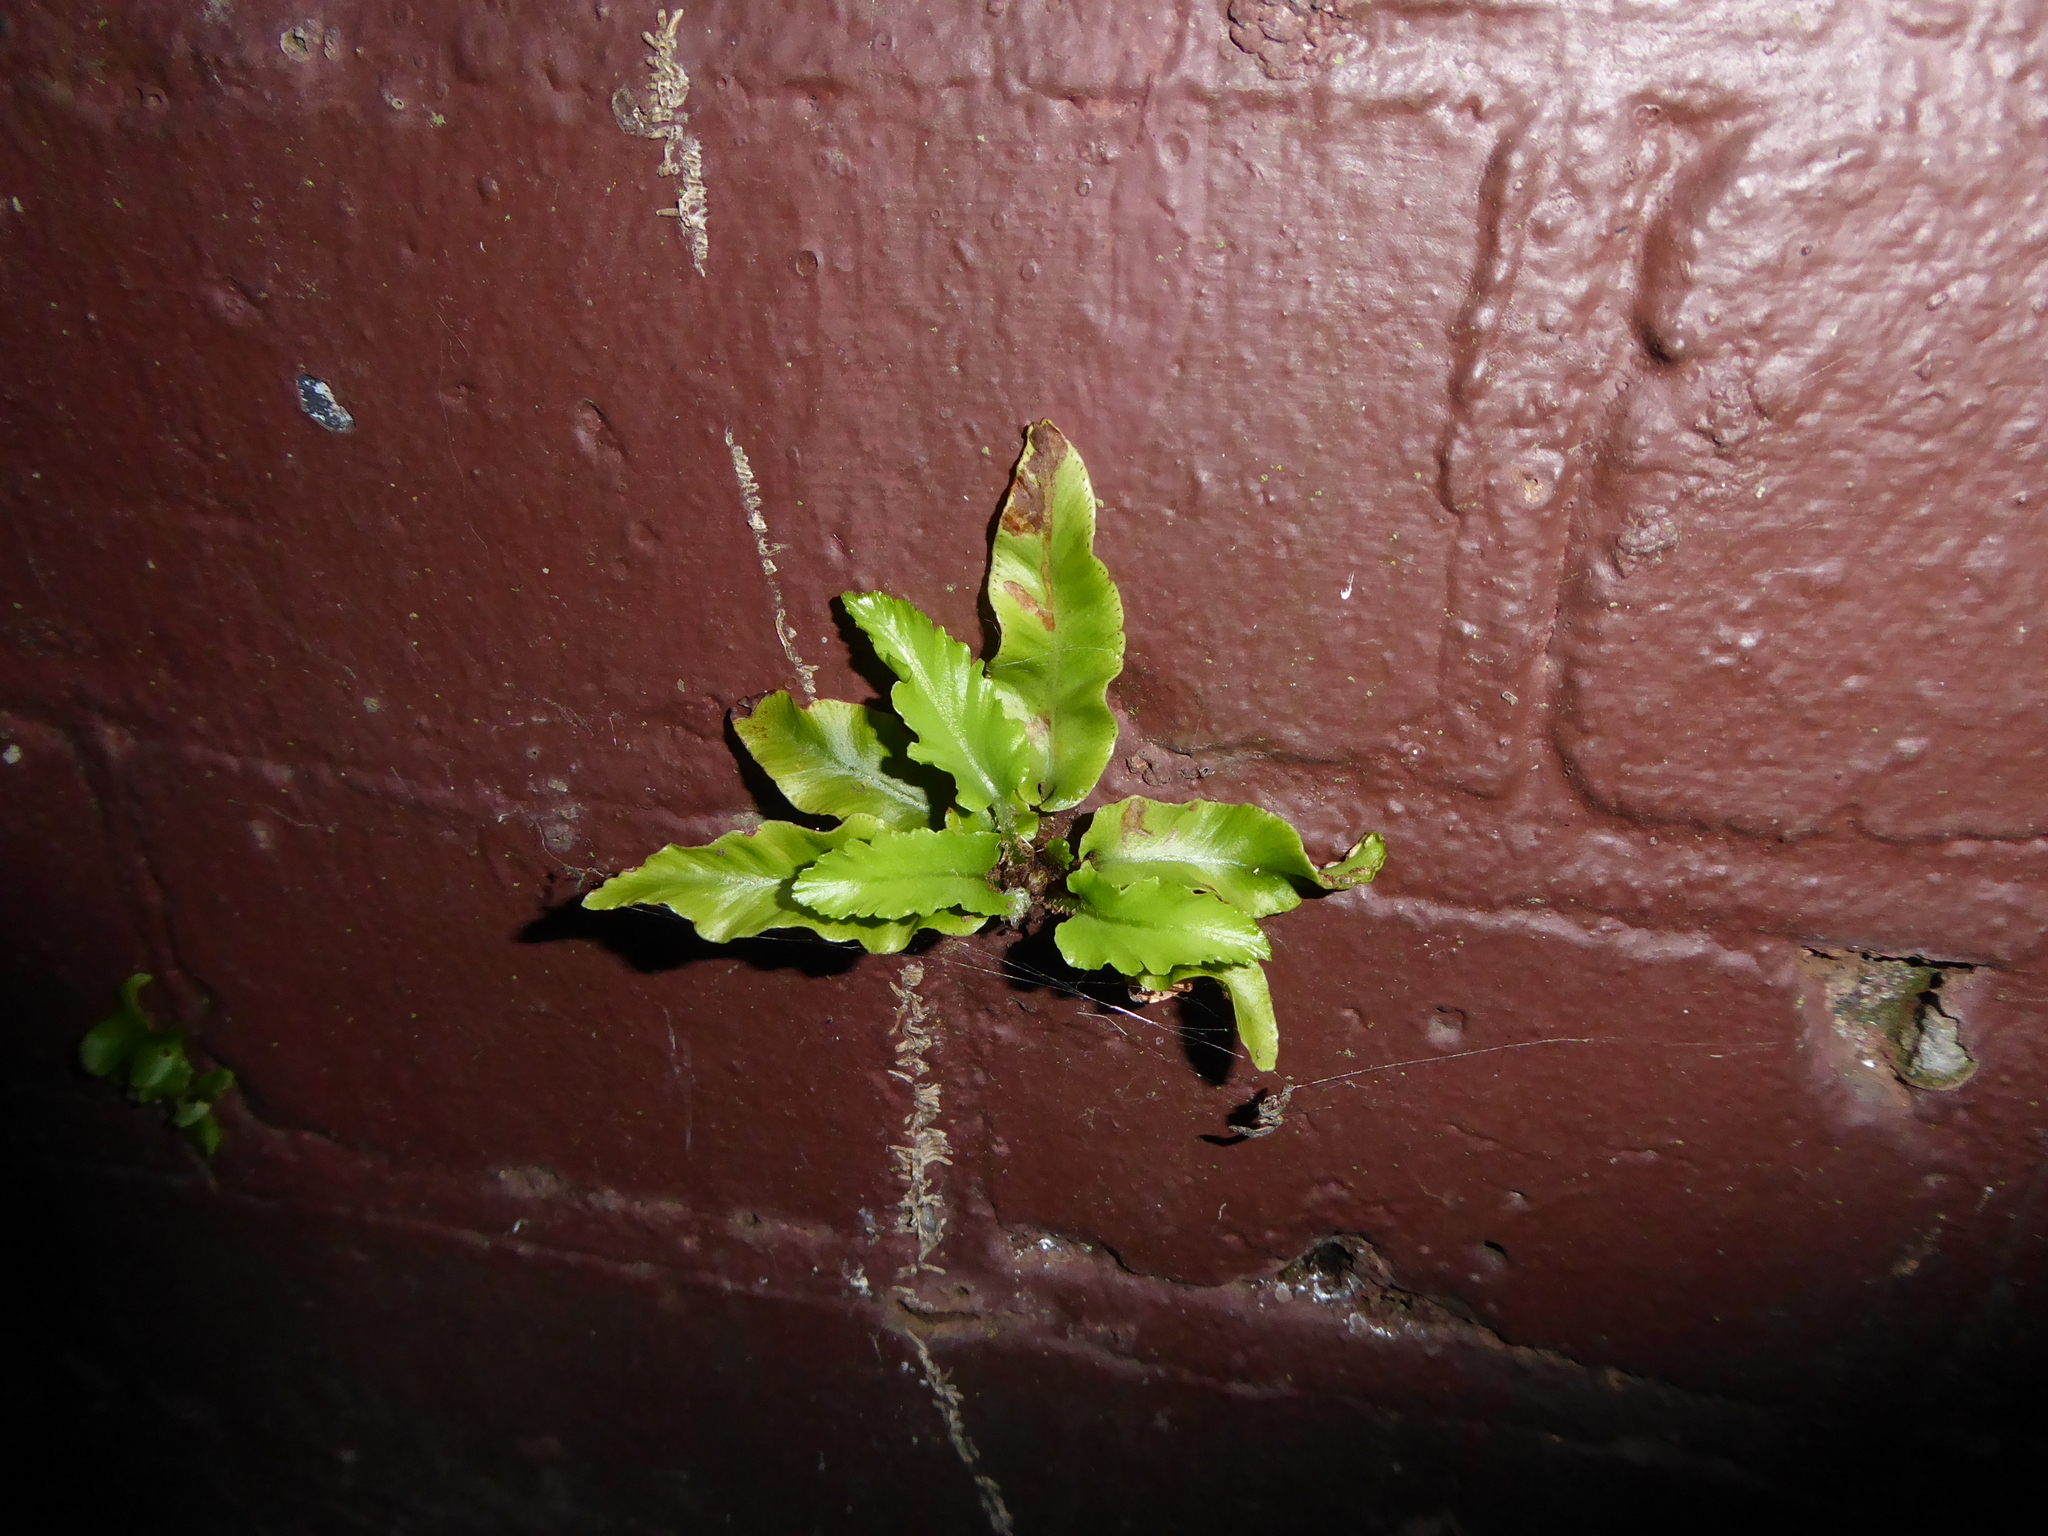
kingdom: Plantae
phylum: Tracheophyta
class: Polypodiopsida
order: Polypodiales
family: Aspleniaceae
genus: Asplenium
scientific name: Asplenium scolopendrium
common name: Hart's-tongue fern
